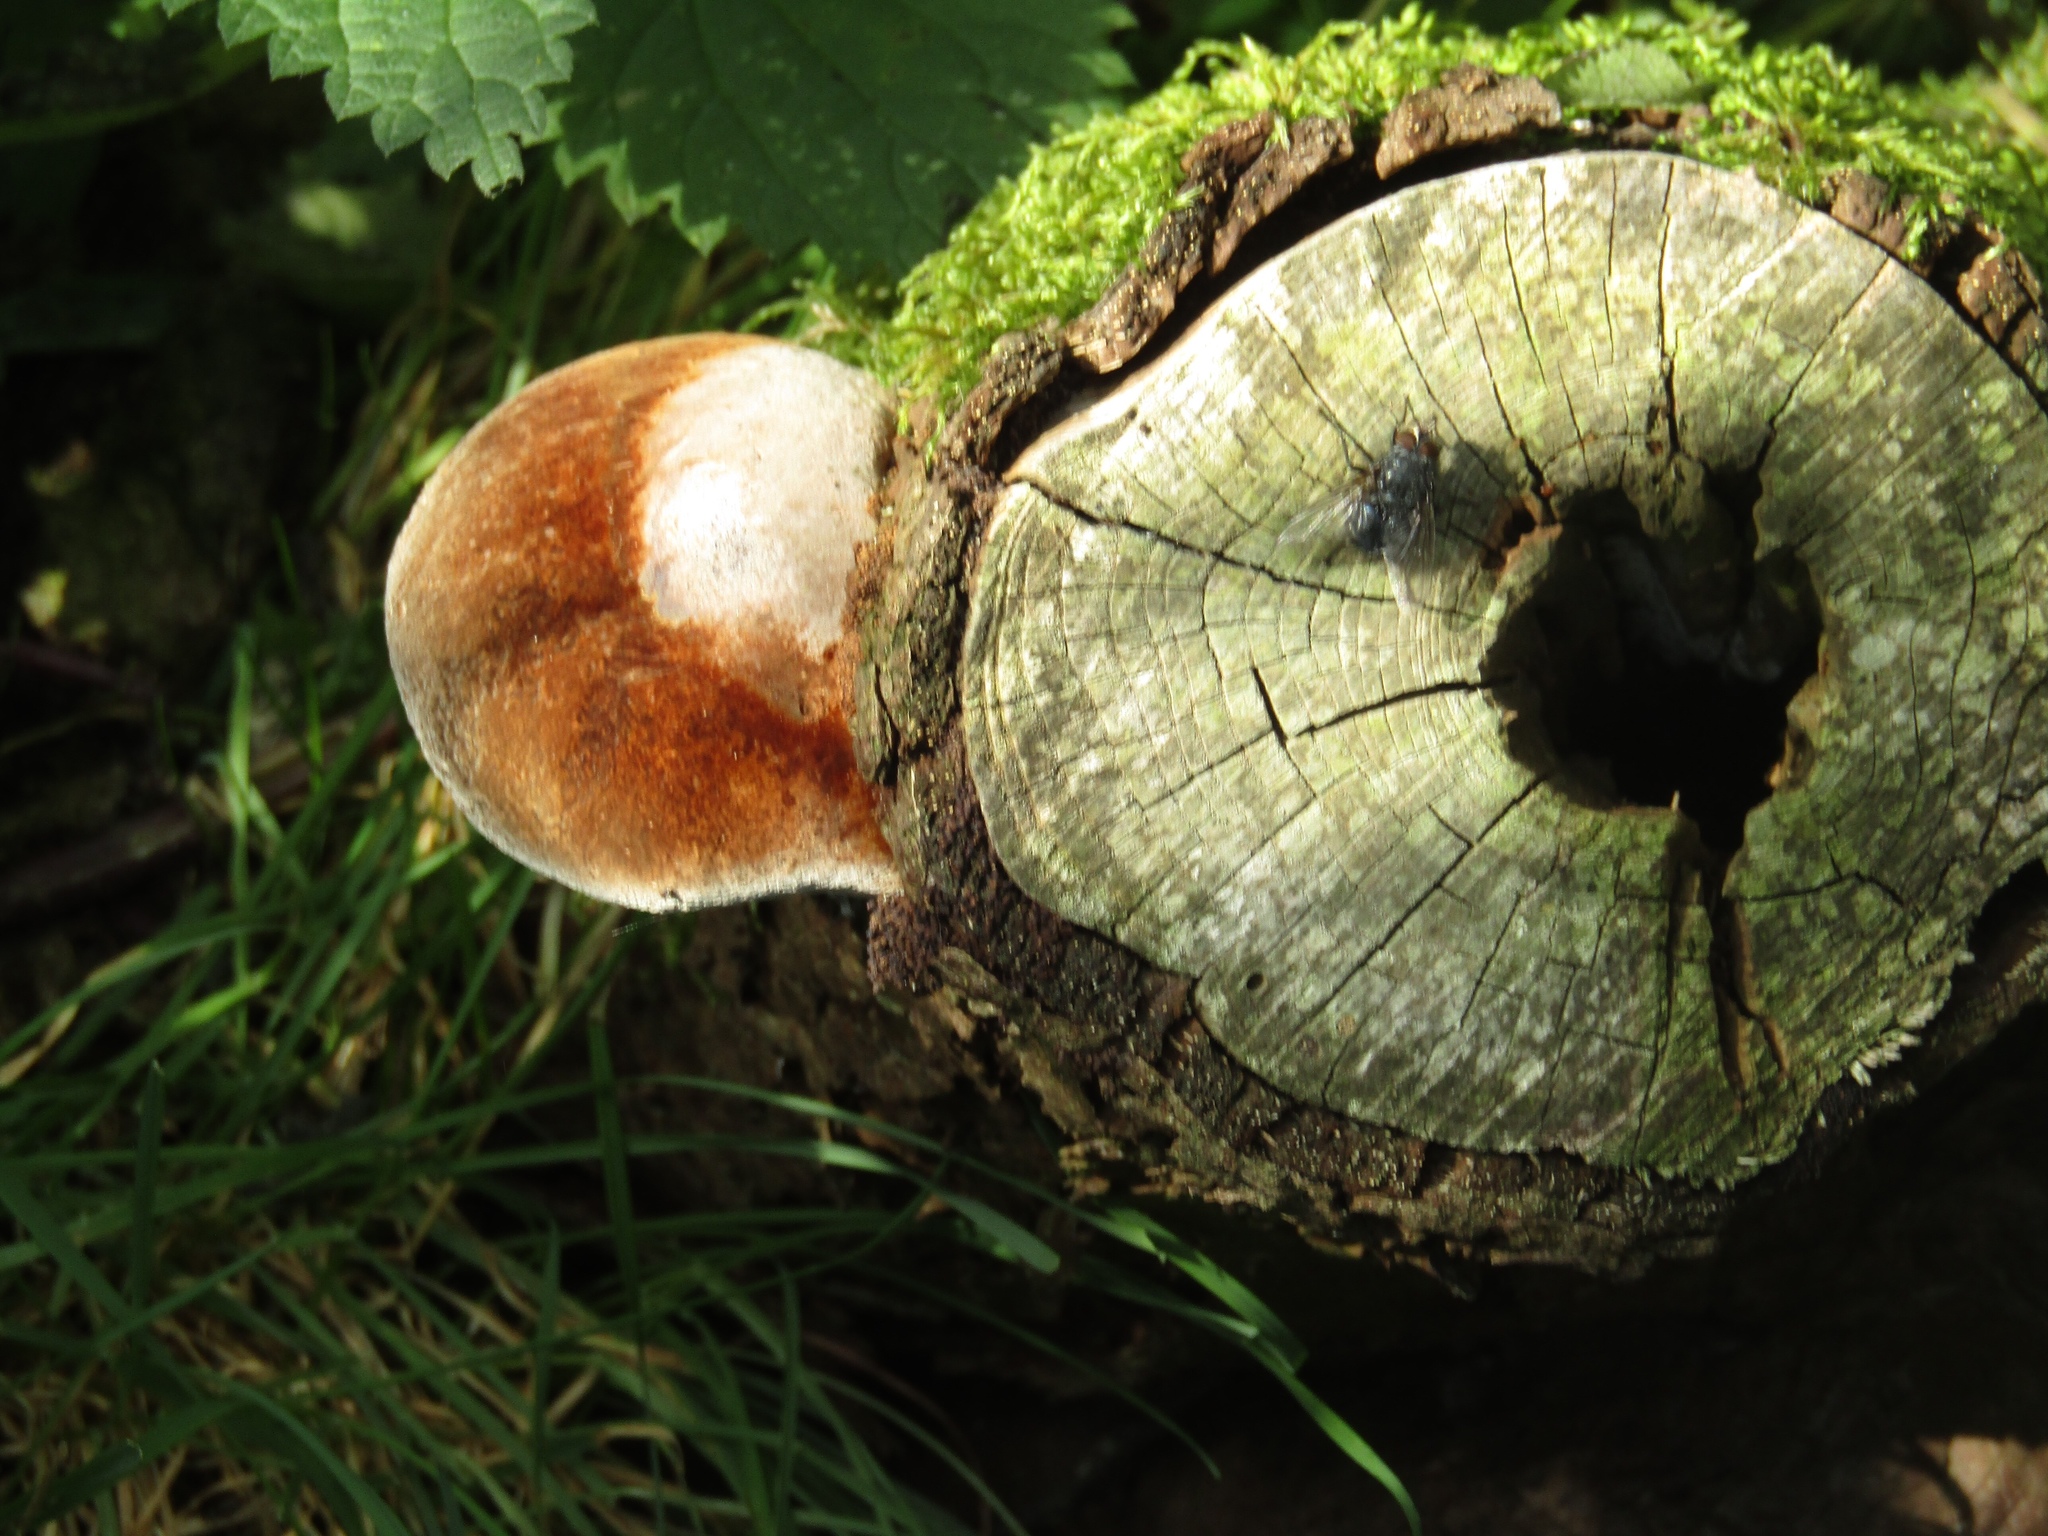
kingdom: Fungi
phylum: Basidiomycota
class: Agaricomycetes
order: Hymenochaetales
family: Hymenochaetaceae
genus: Fomitiporia
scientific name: Fomitiporia hippophaeicola
